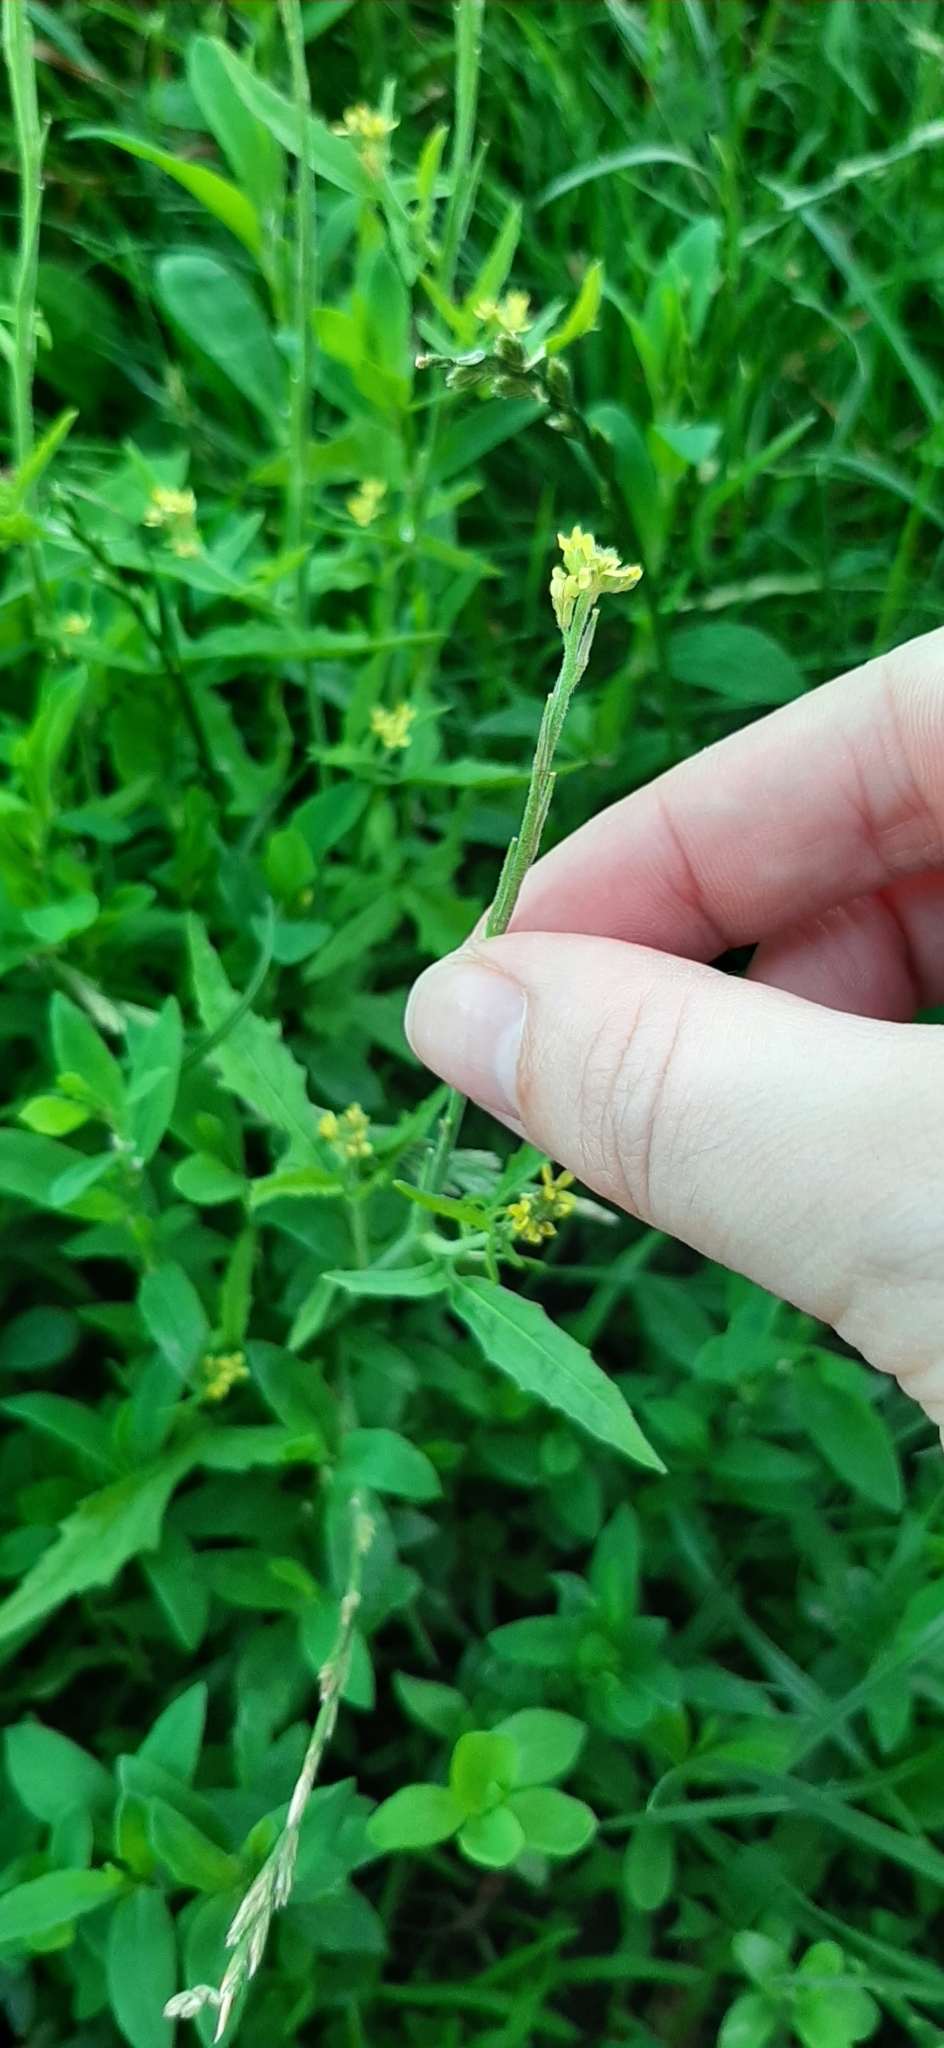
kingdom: Plantae
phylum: Tracheophyta
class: Magnoliopsida
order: Brassicales
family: Brassicaceae
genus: Sisymbrium
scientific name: Sisymbrium officinale
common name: Hedge mustard
